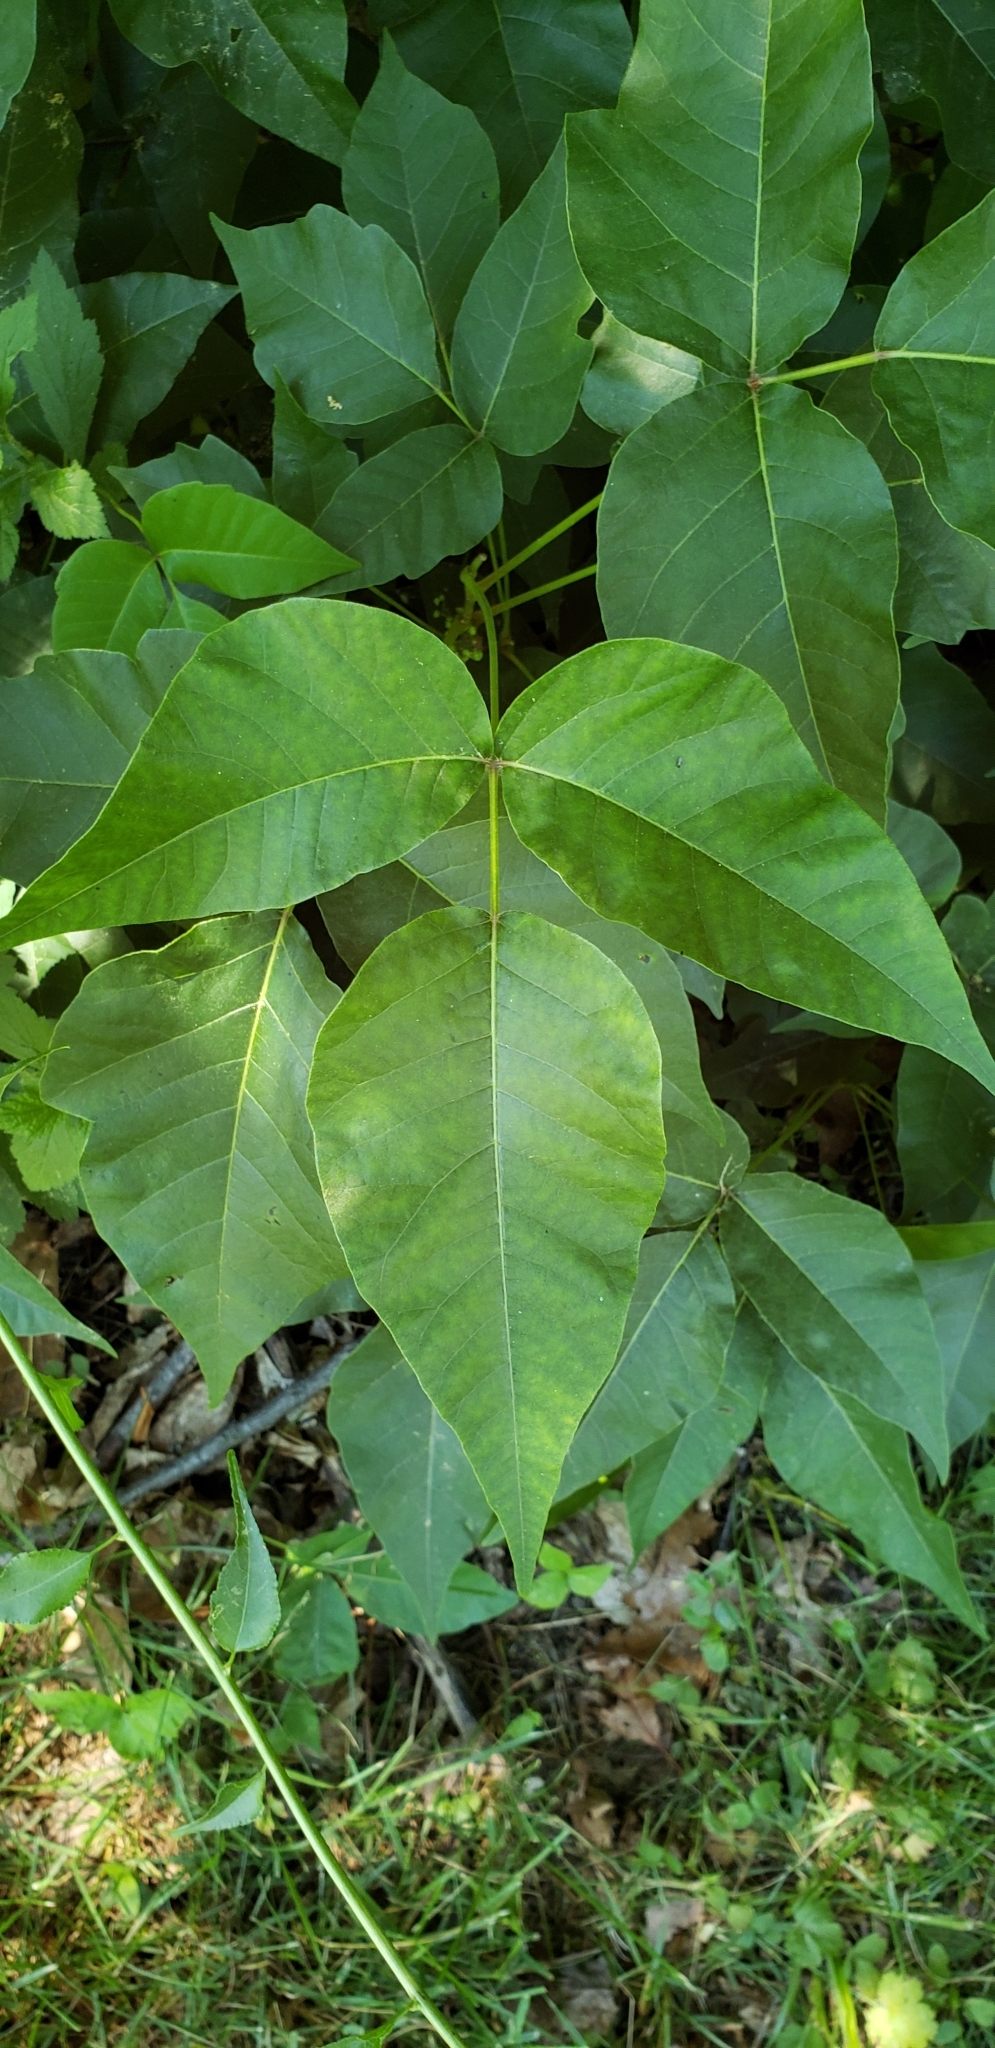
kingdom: Plantae
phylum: Tracheophyta
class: Magnoliopsida
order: Sapindales
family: Anacardiaceae
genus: Toxicodendron
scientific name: Toxicodendron radicans
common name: Poison ivy
